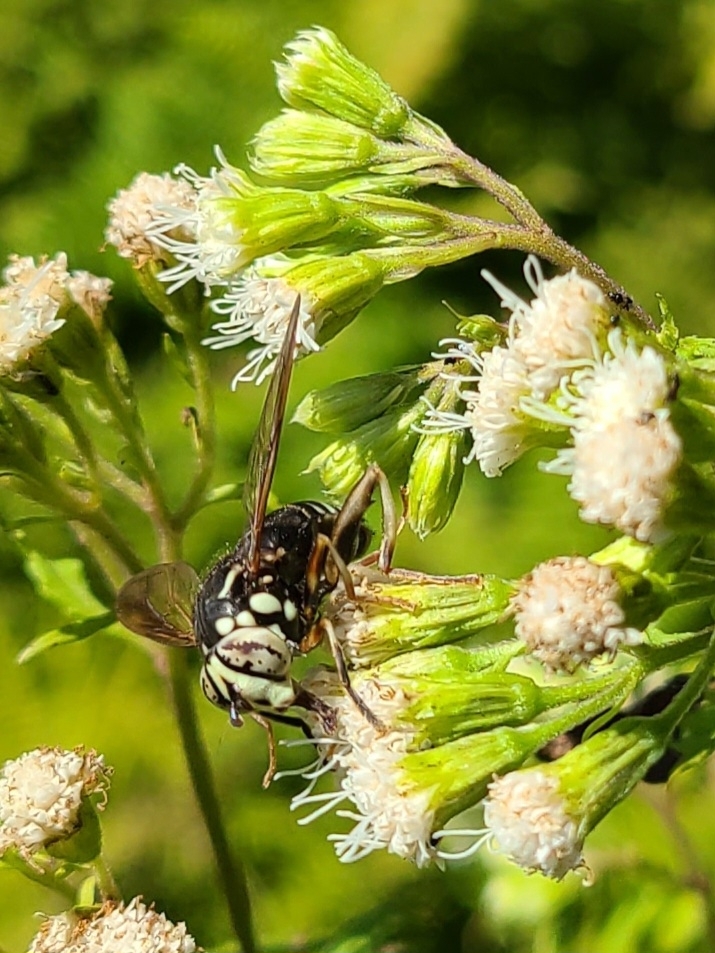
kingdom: Animalia
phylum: Arthropoda
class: Insecta
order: Diptera
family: Syrphidae
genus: Spilomyia
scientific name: Spilomyia fusca
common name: Bald-faced hornet fly
